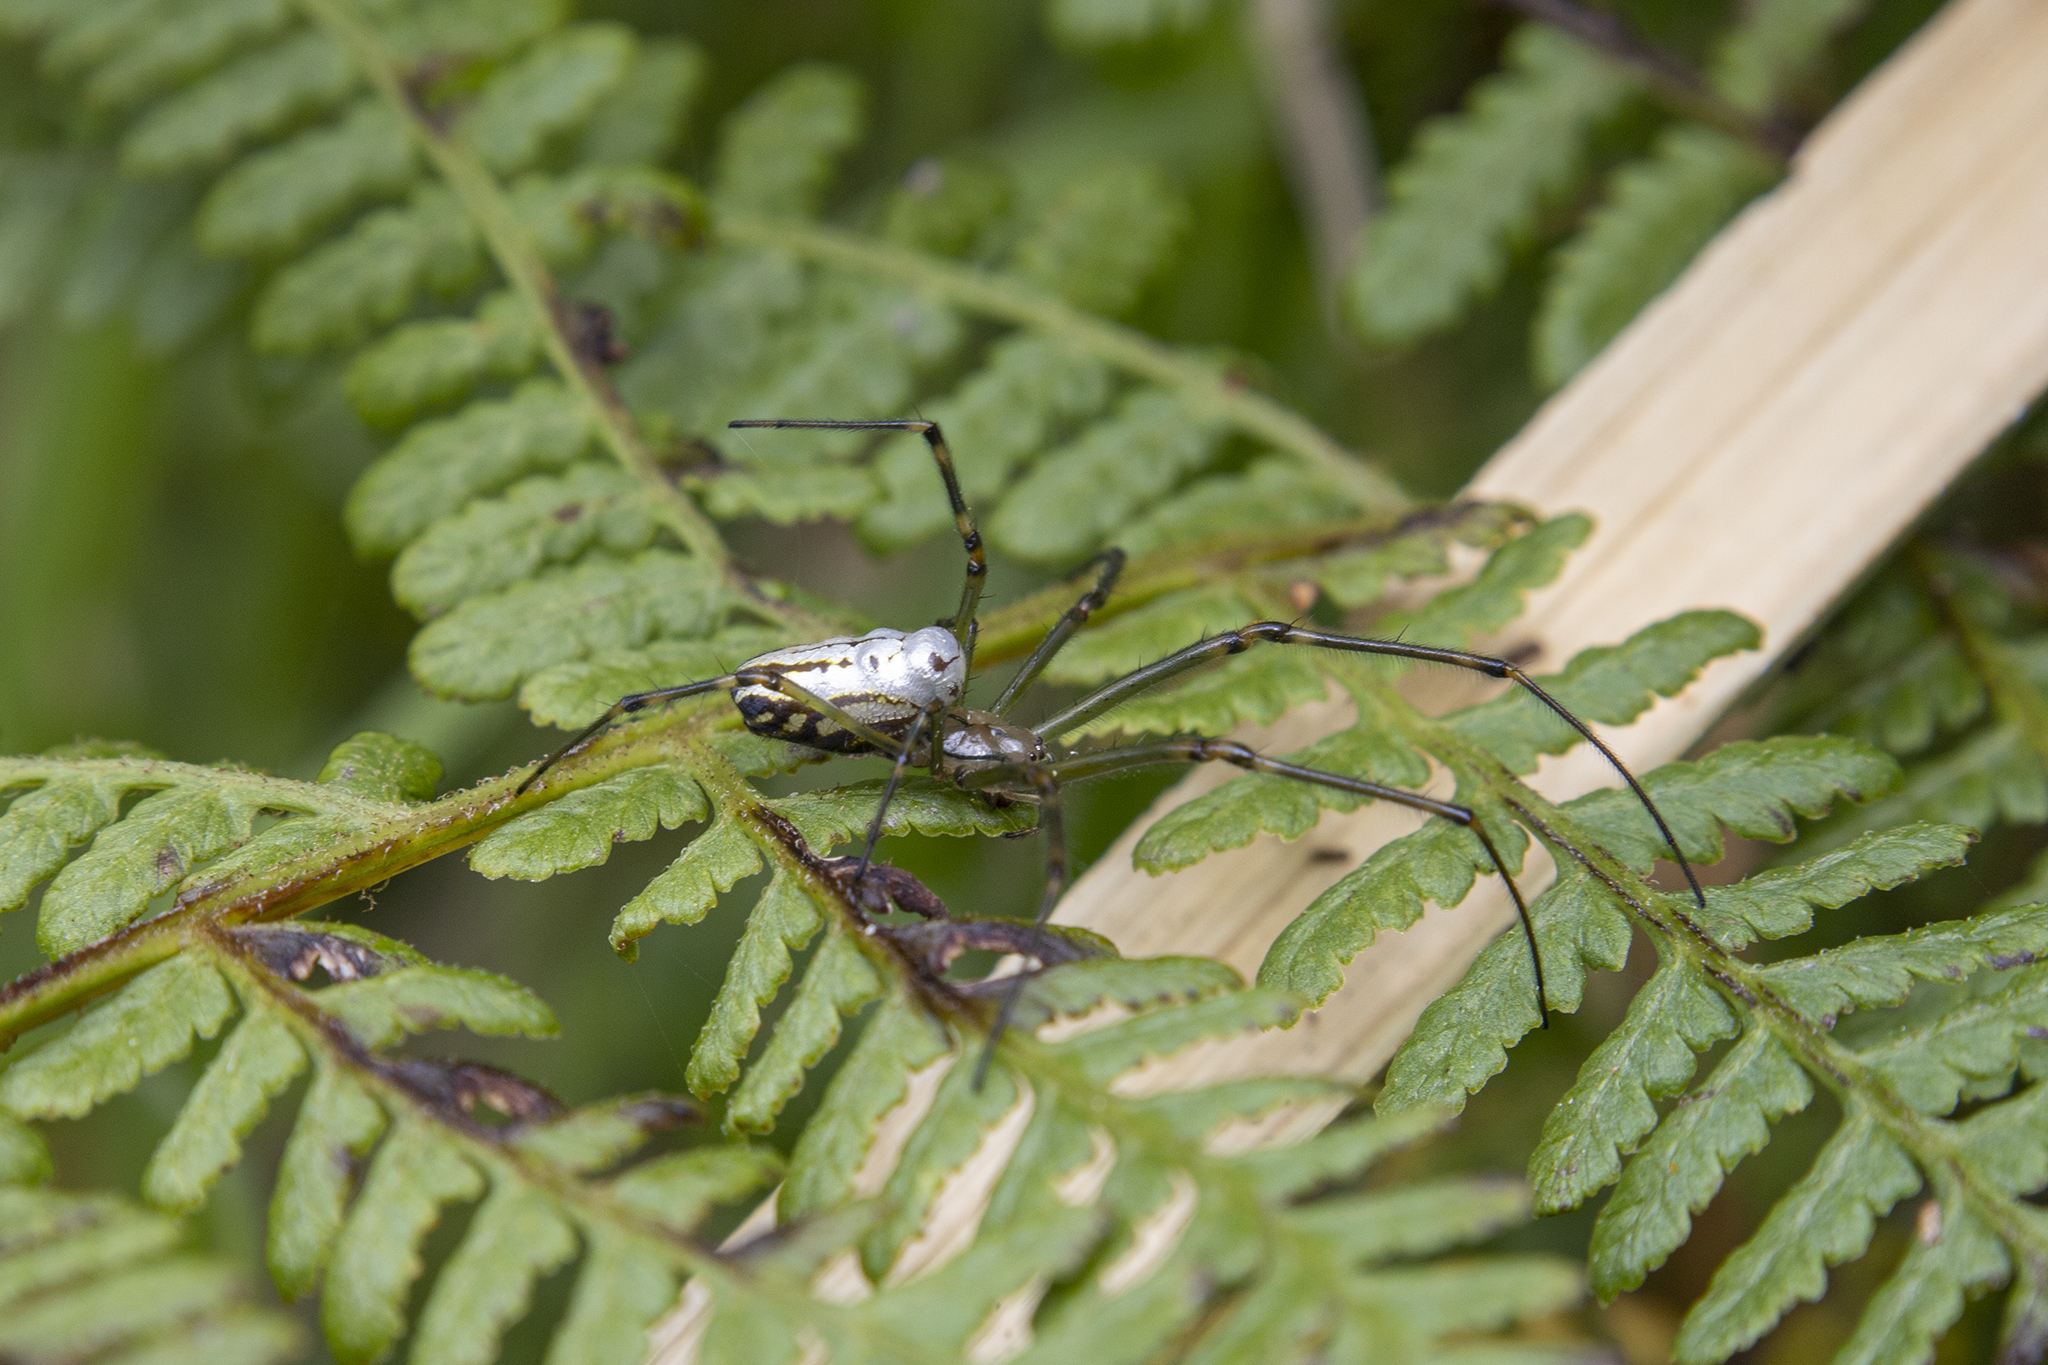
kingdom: Animalia
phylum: Arthropoda
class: Arachnida
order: Araneae
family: Tetragnathidae
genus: Leucauge
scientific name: Leucauge dromedaria
